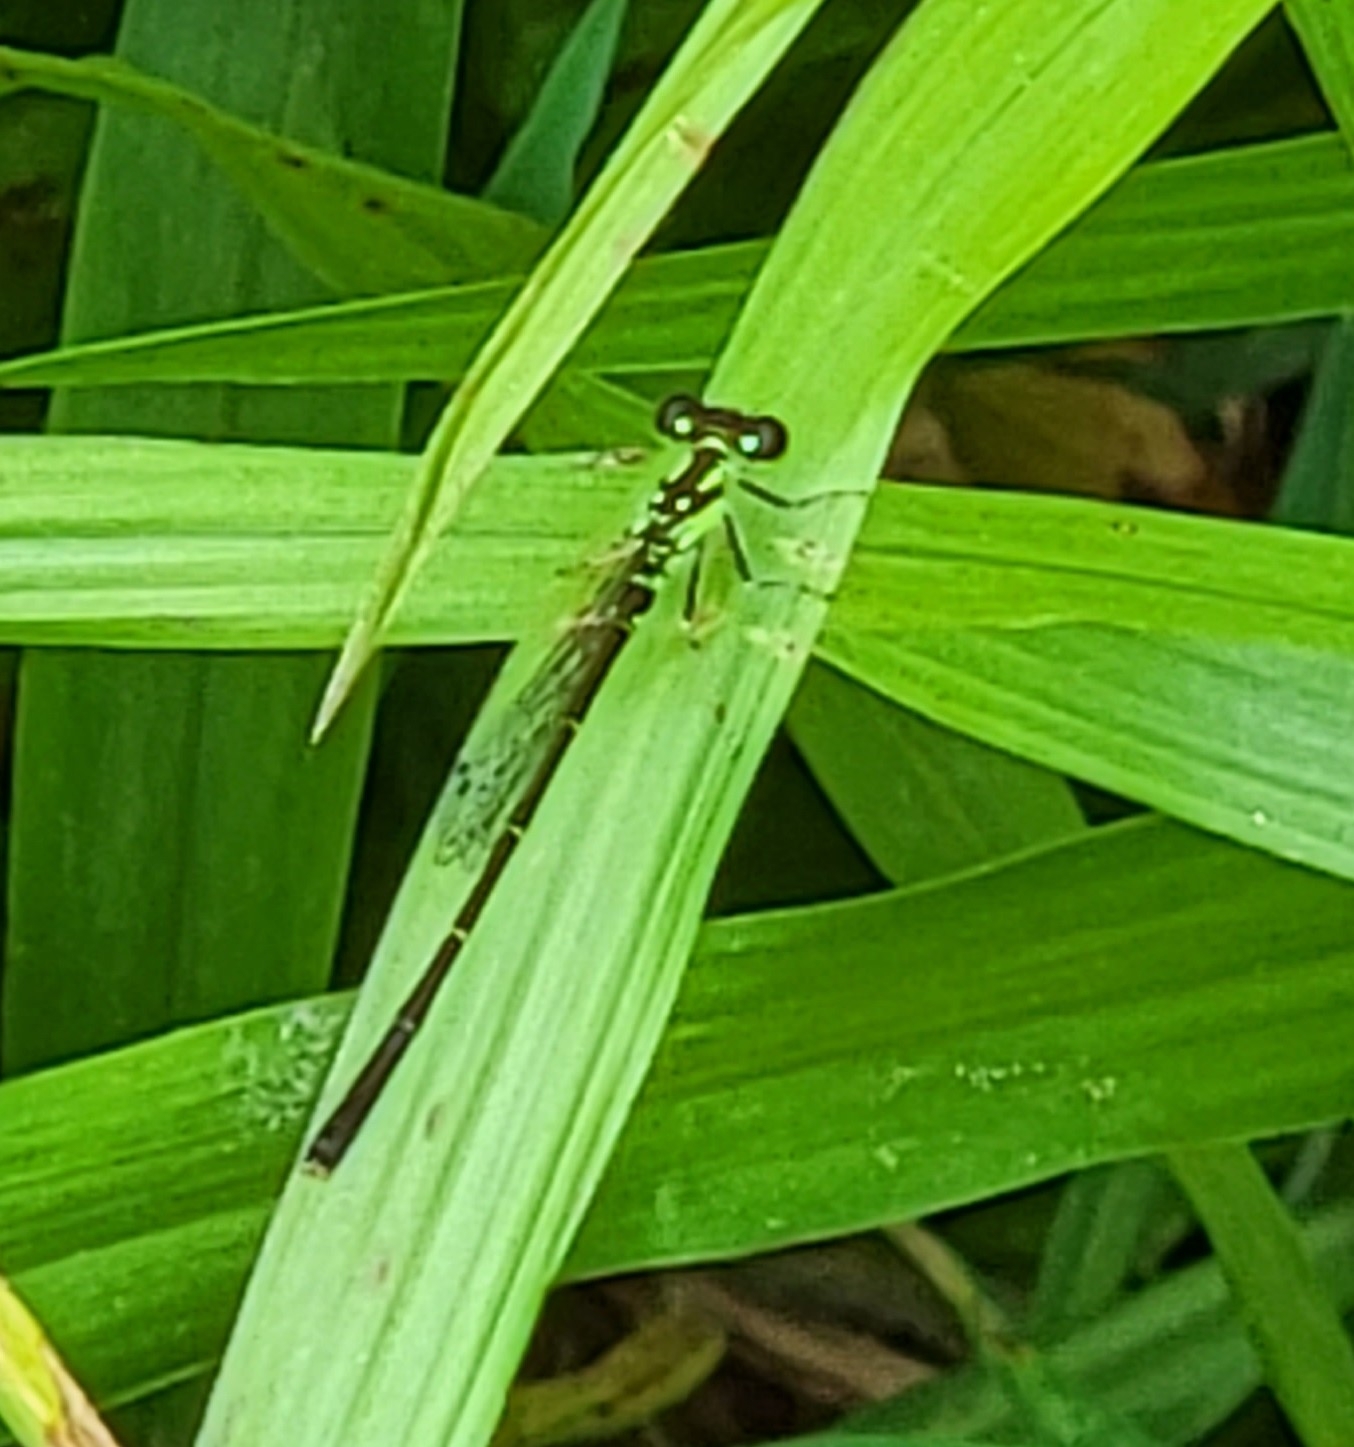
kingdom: Animalia
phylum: Arthropoda
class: Insecta
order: Odonata
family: Coenagrionidae
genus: Ischnura
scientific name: Ischnura posita
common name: Fragile forktail
